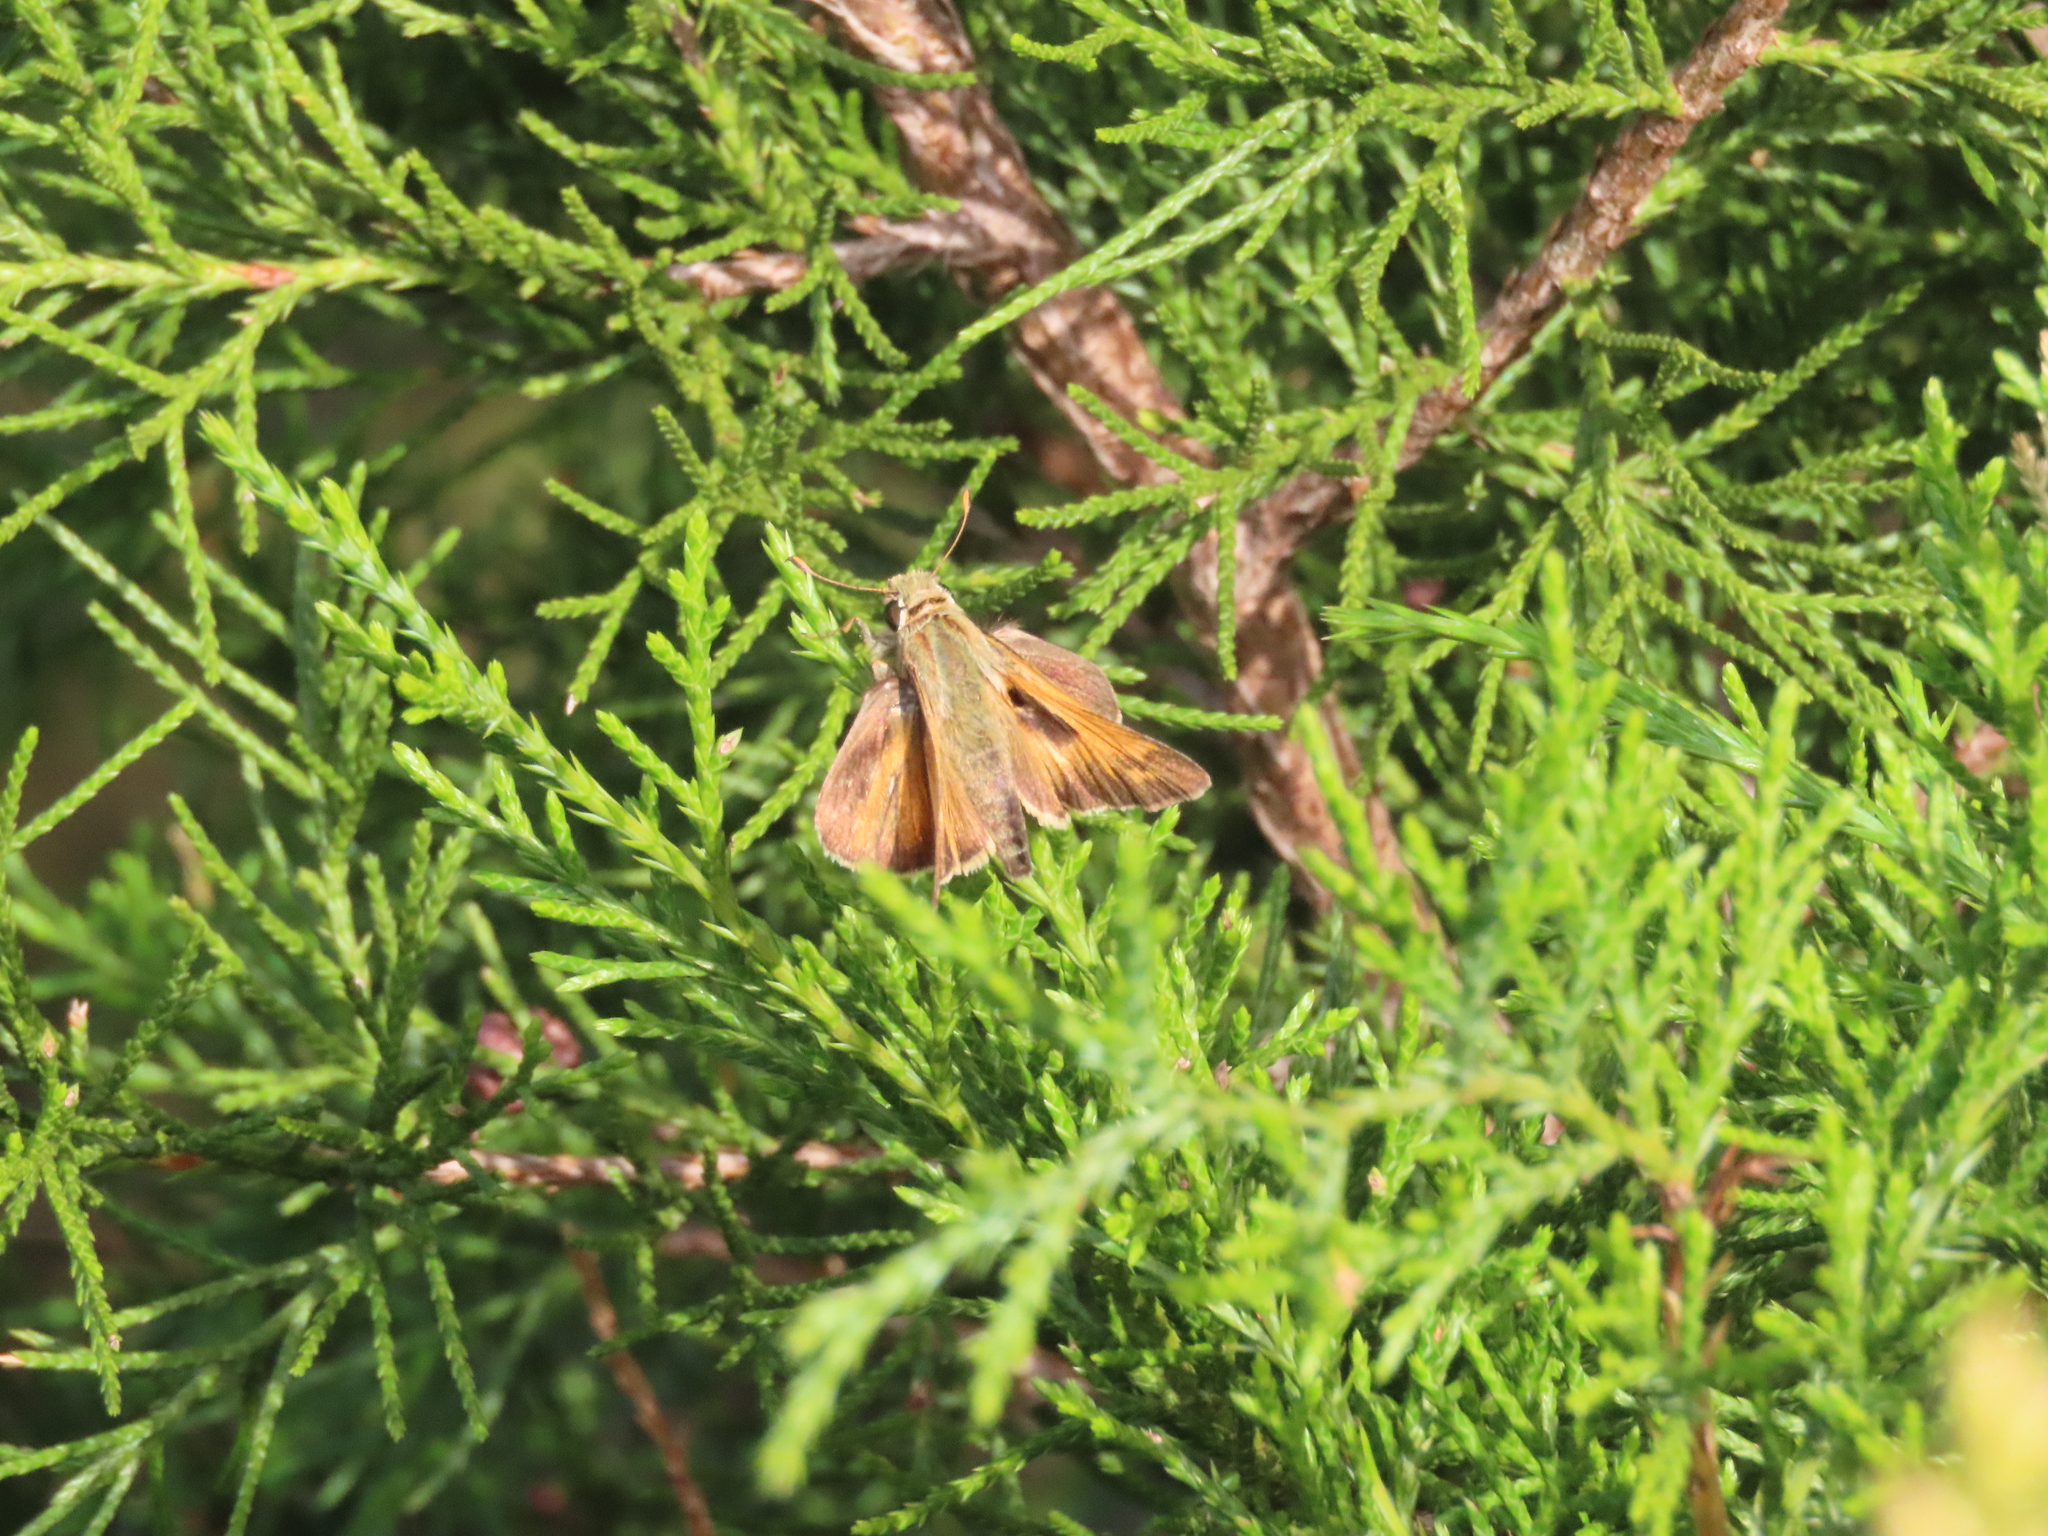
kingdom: Animalia
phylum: Arthropoda
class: Insecta
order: Lepidoptera
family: Hesperiidae
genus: Atalopedes
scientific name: Atalopedes
